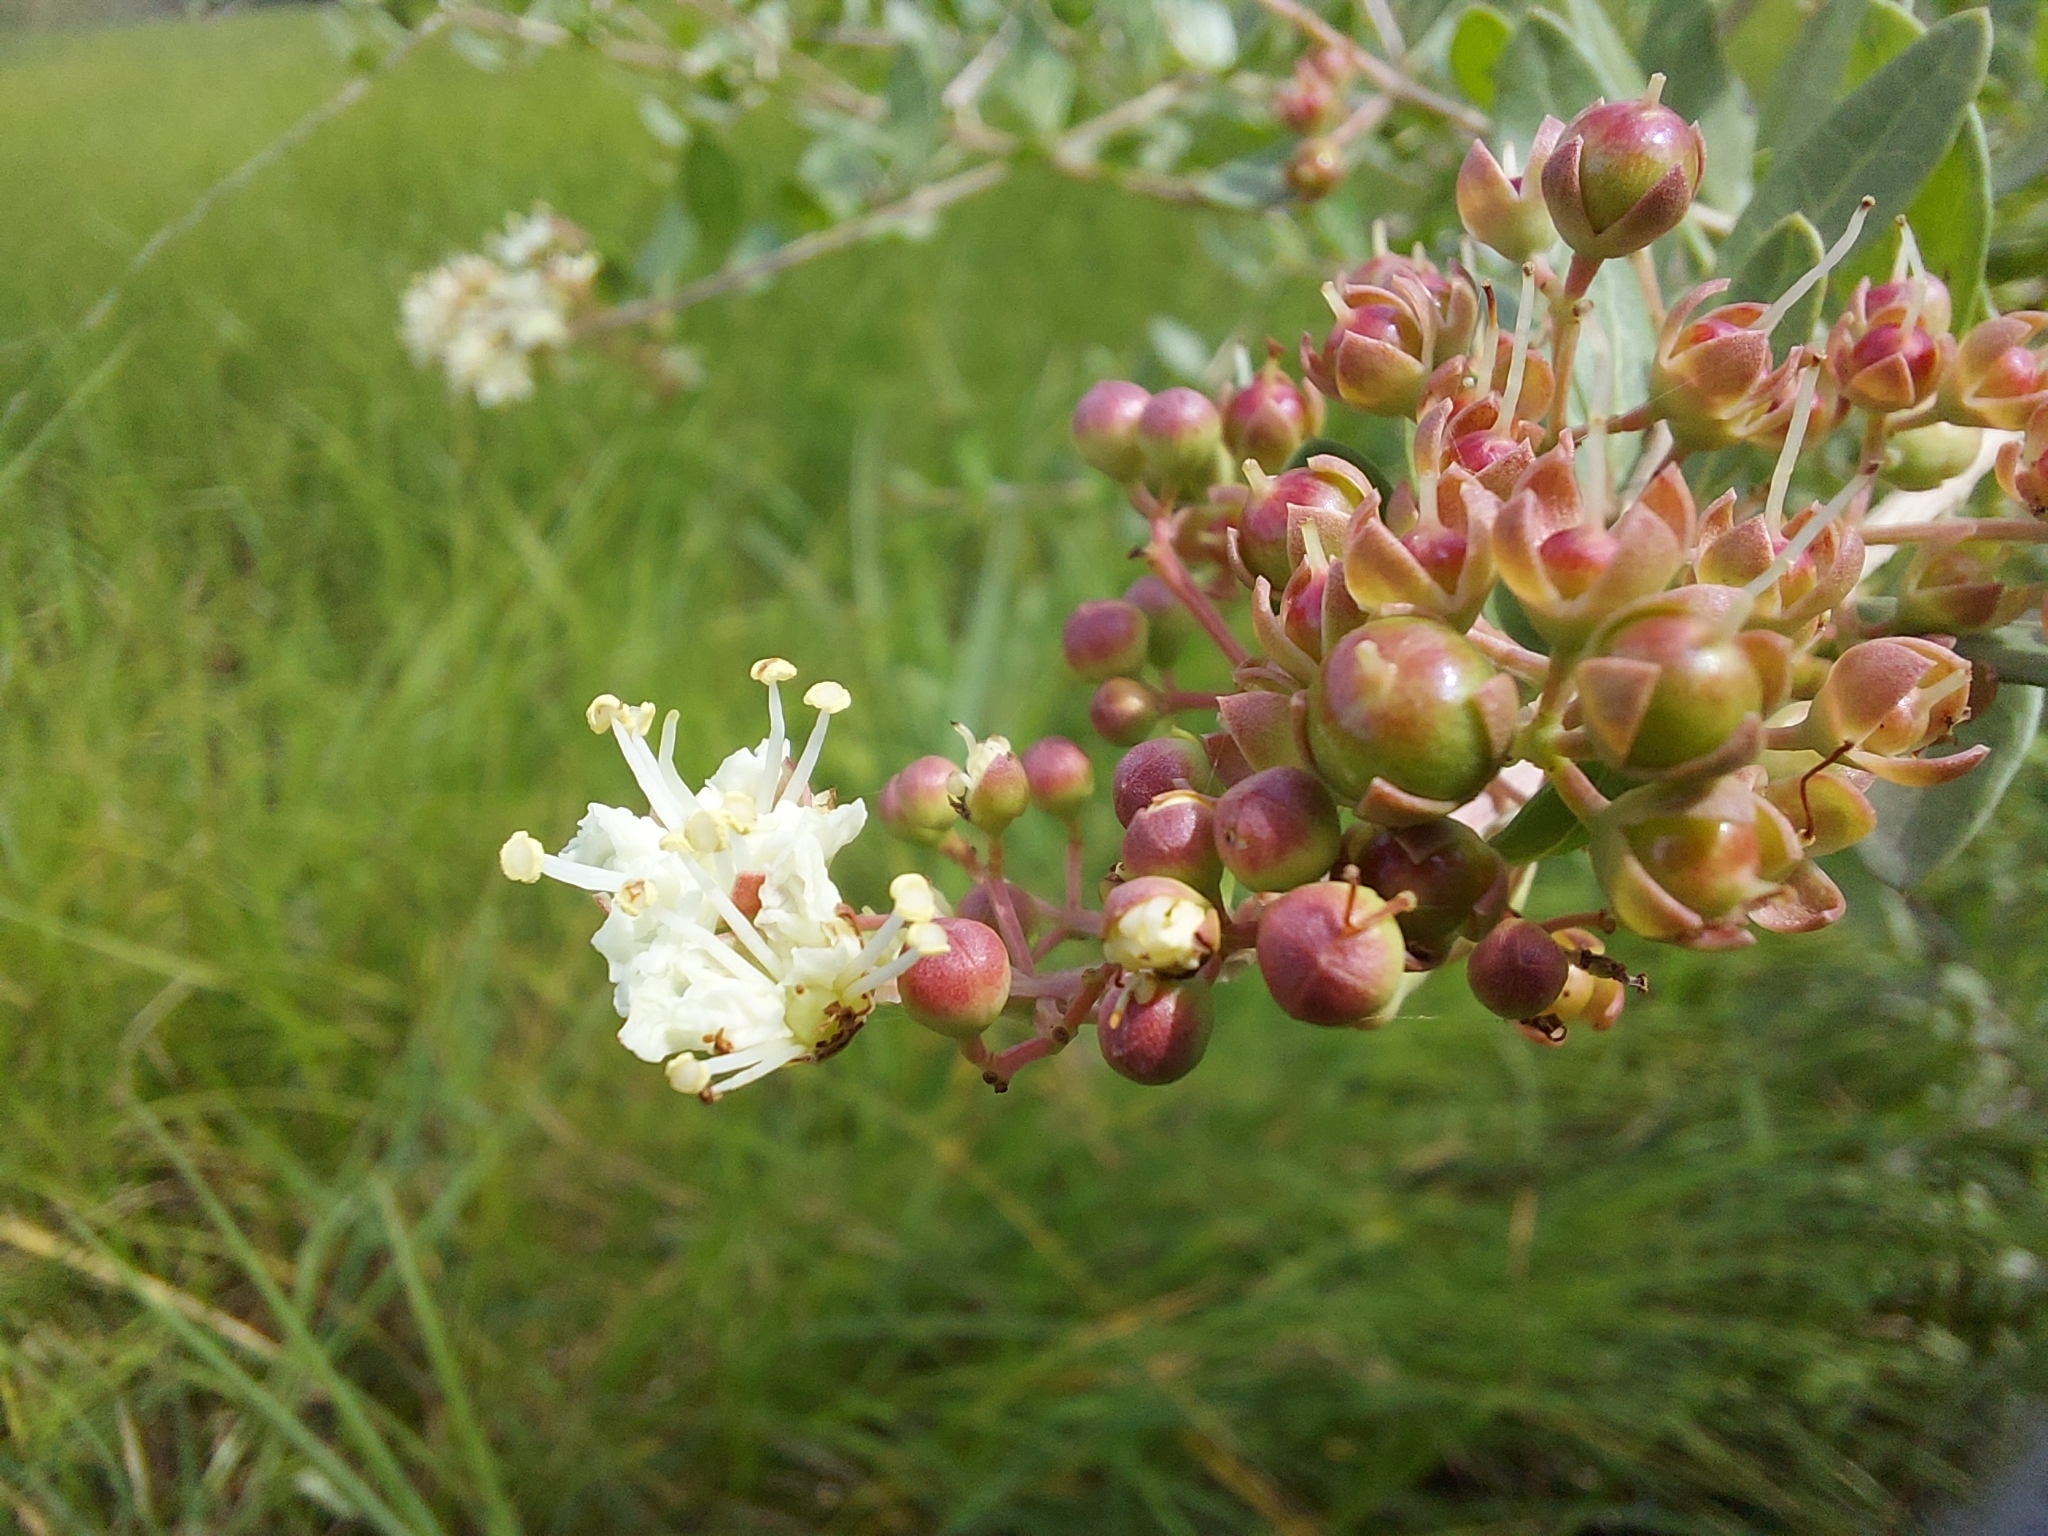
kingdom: Plantae
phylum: Tracheophyta
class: Magnoliopsida
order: Myrtales
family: Lythraceae
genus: Lawsonia
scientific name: Lawsonia inermis
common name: Henna
